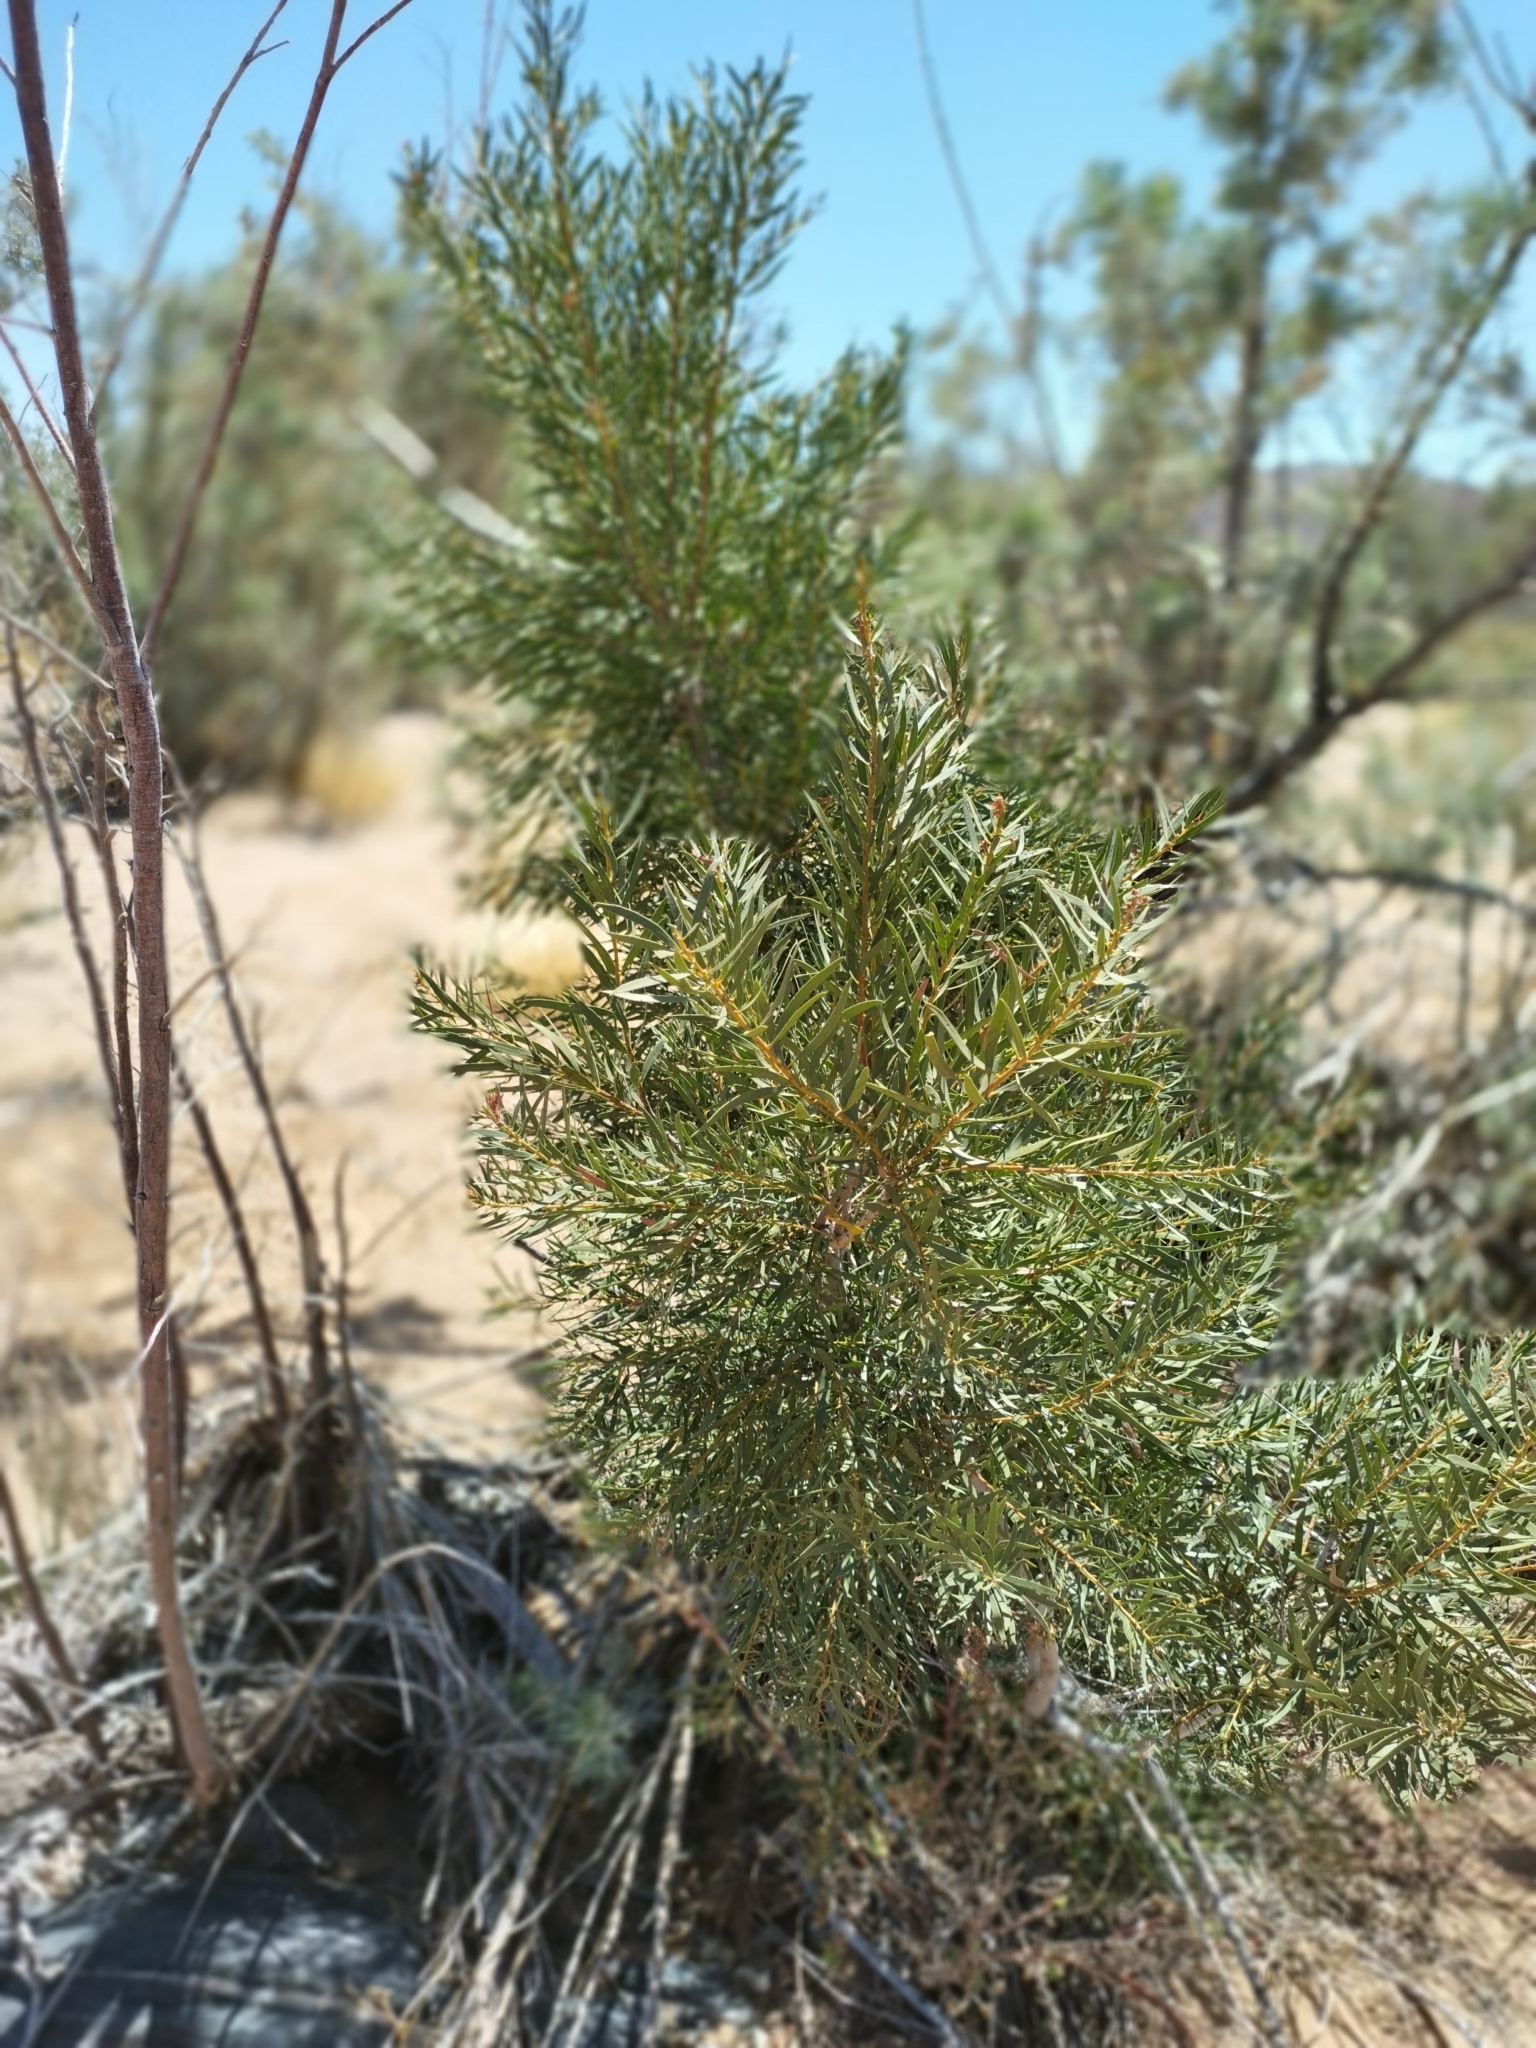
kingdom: Plantae
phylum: Tracheophyta
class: Magnoliopsida
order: Ericales
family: Ebenaceae
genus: Euclea
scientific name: Euclea pseudebenus
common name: Black ebony
